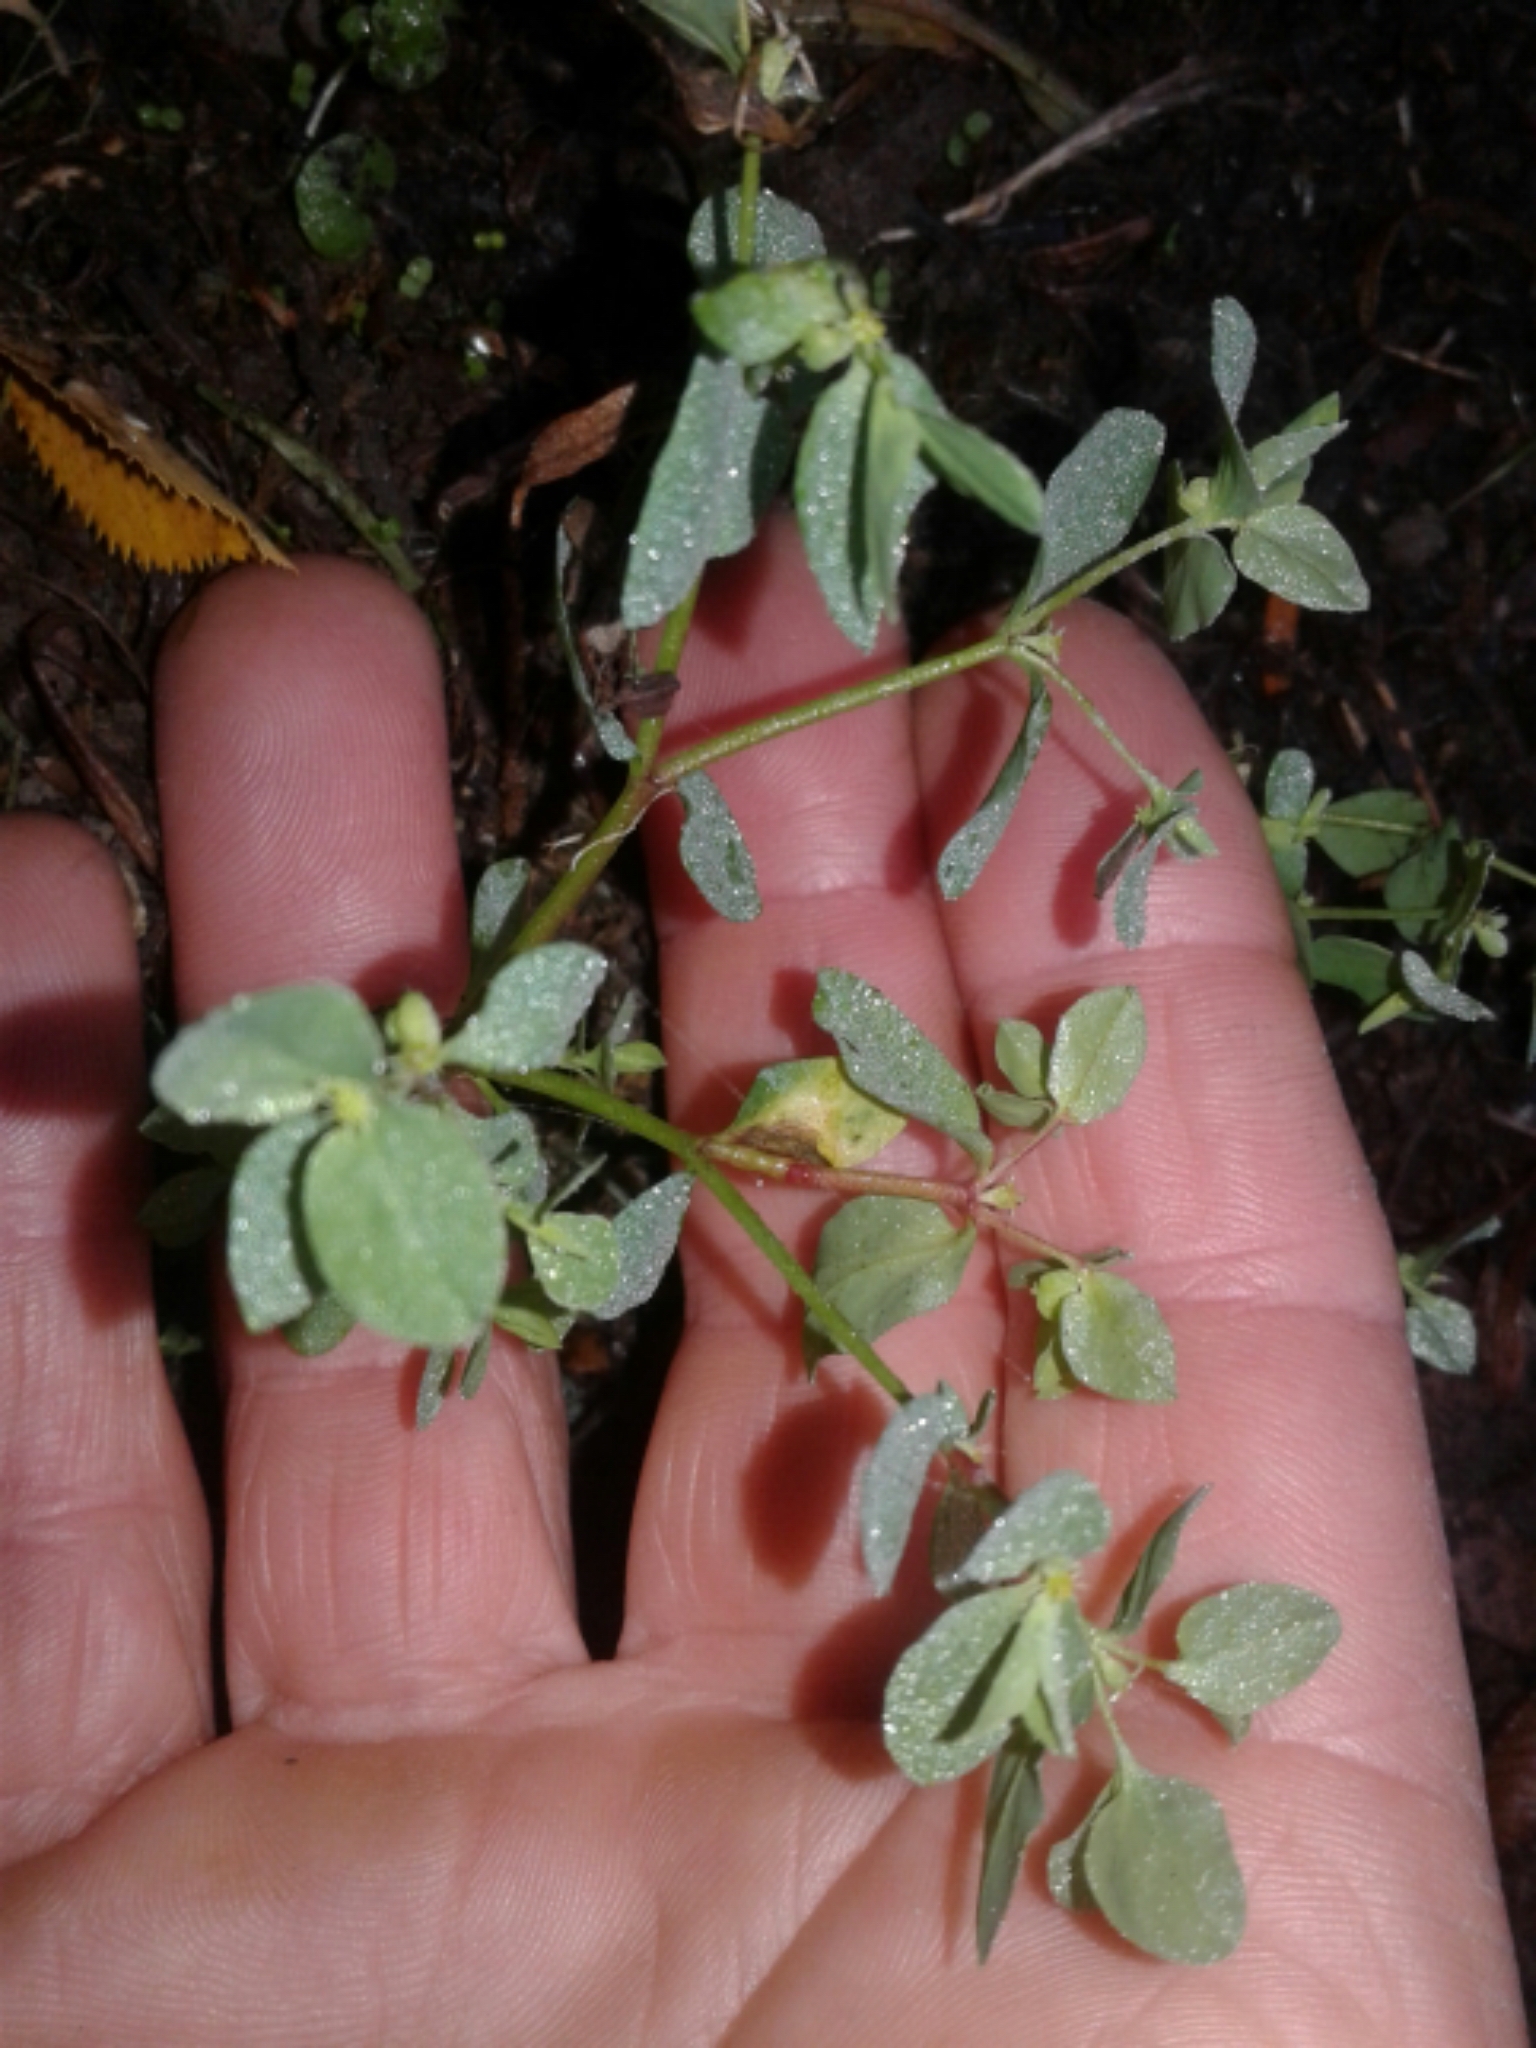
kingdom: Plantae
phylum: Tracheophyta
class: Magnoliopsida
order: Malpighiales
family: Euphorbiaceae
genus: Euphorbia
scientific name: Euphorbia peplus
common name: Petty spurge
